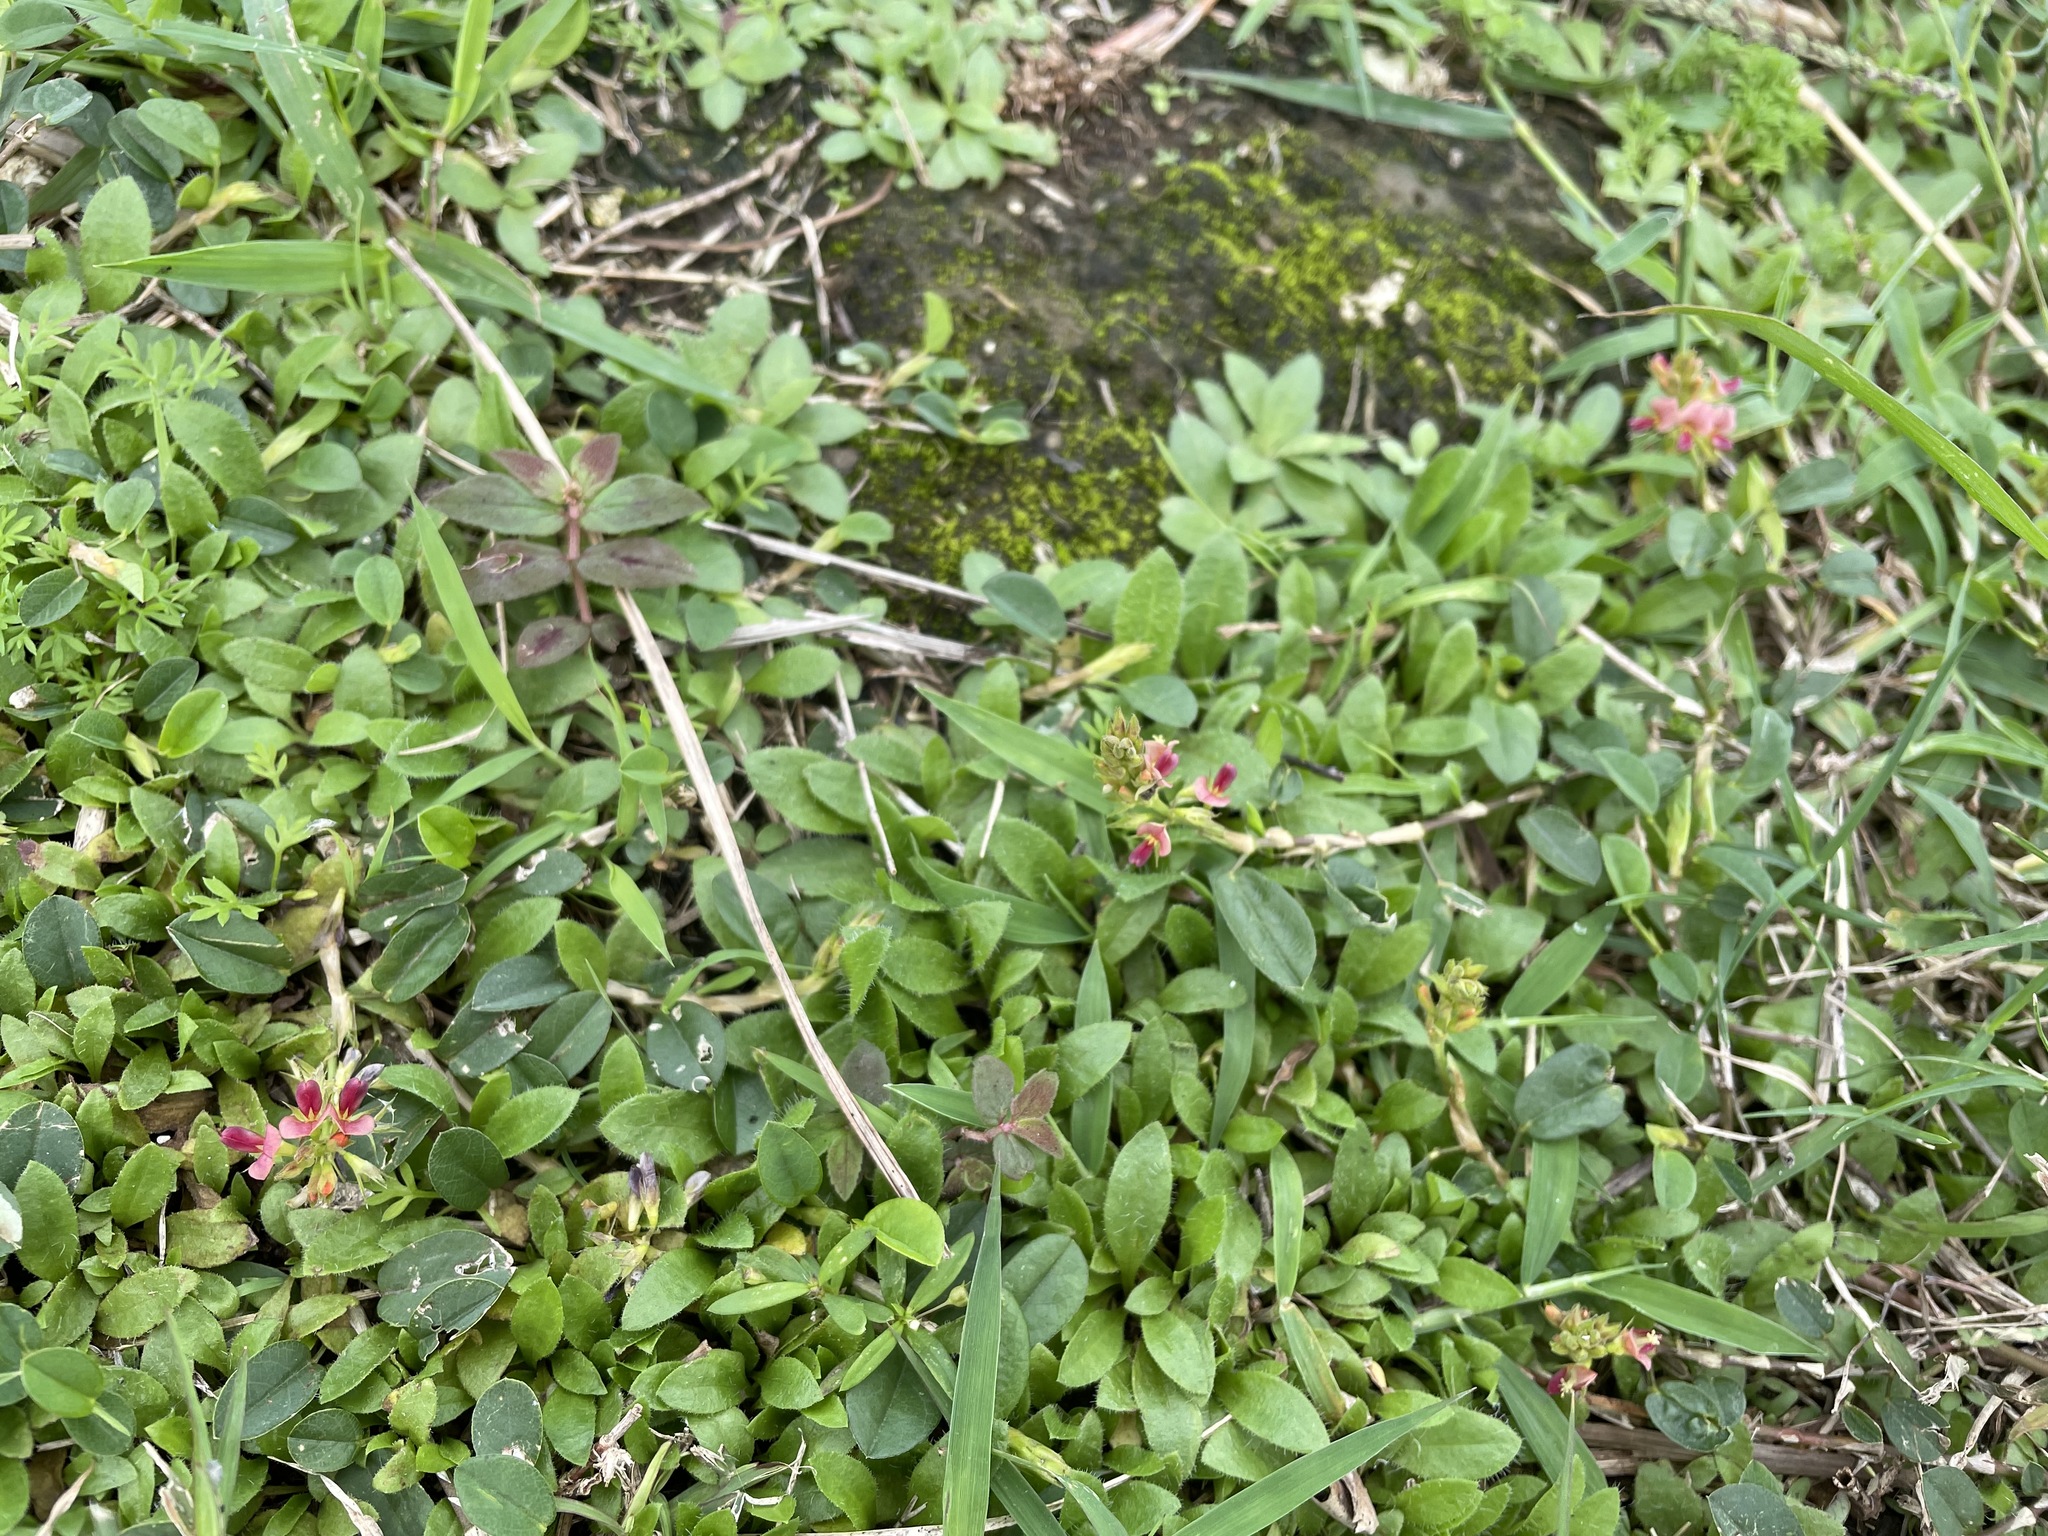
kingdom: Plantae
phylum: Tracheophyta
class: Magnoliopsida
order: Fabales
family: Fabaceae
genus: Alysicarpus
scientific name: Alysicarpus vaginalis
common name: White moneywort
